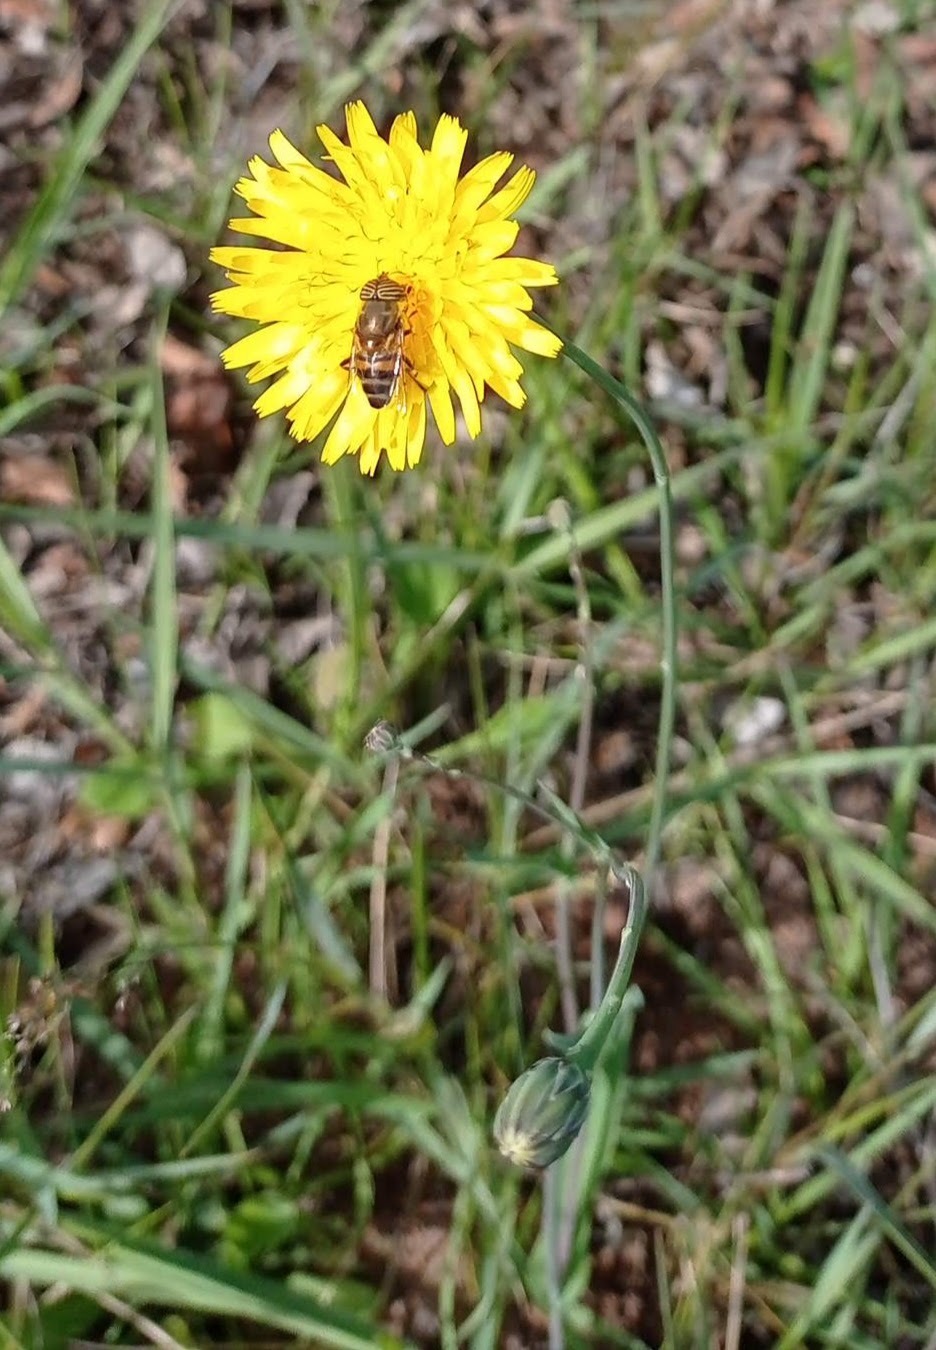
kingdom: Animalia
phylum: Arthropoda
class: Insecta
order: Diptera
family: Syrphidae
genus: Eristalinus
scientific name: Eristalinus taeniops
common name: Syrphid fly
